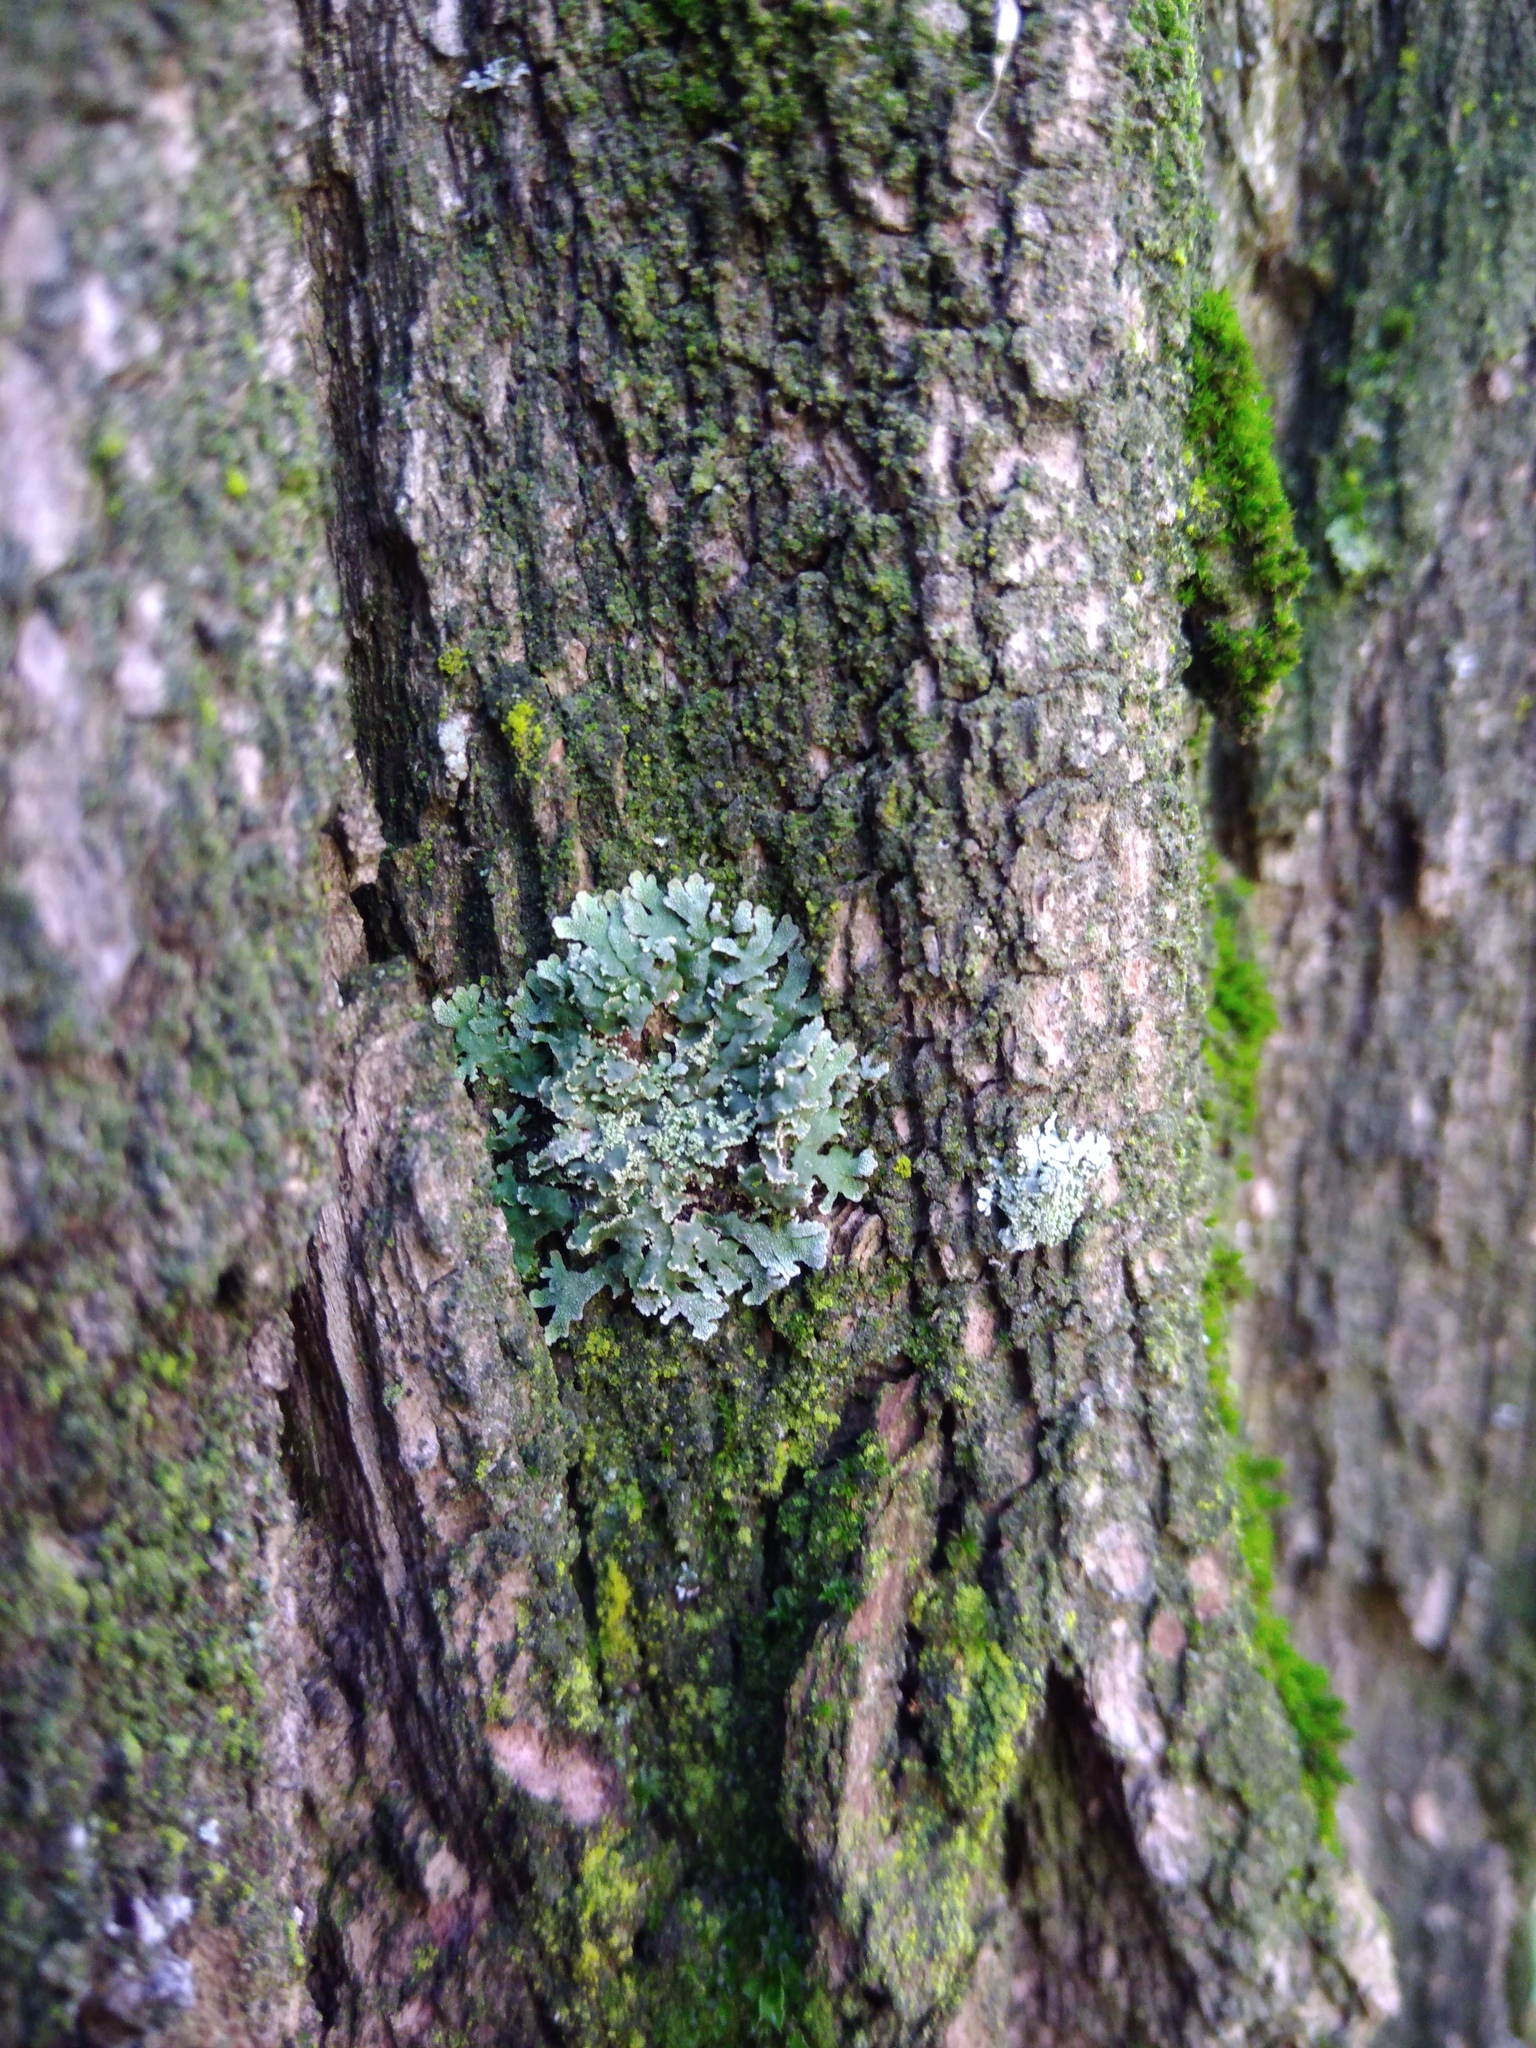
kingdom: Fungi
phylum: Ascomycota
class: Lecanoromycetes
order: Caliciales
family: Physciaceae
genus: Poeltonia
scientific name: Poeltonia grisea
